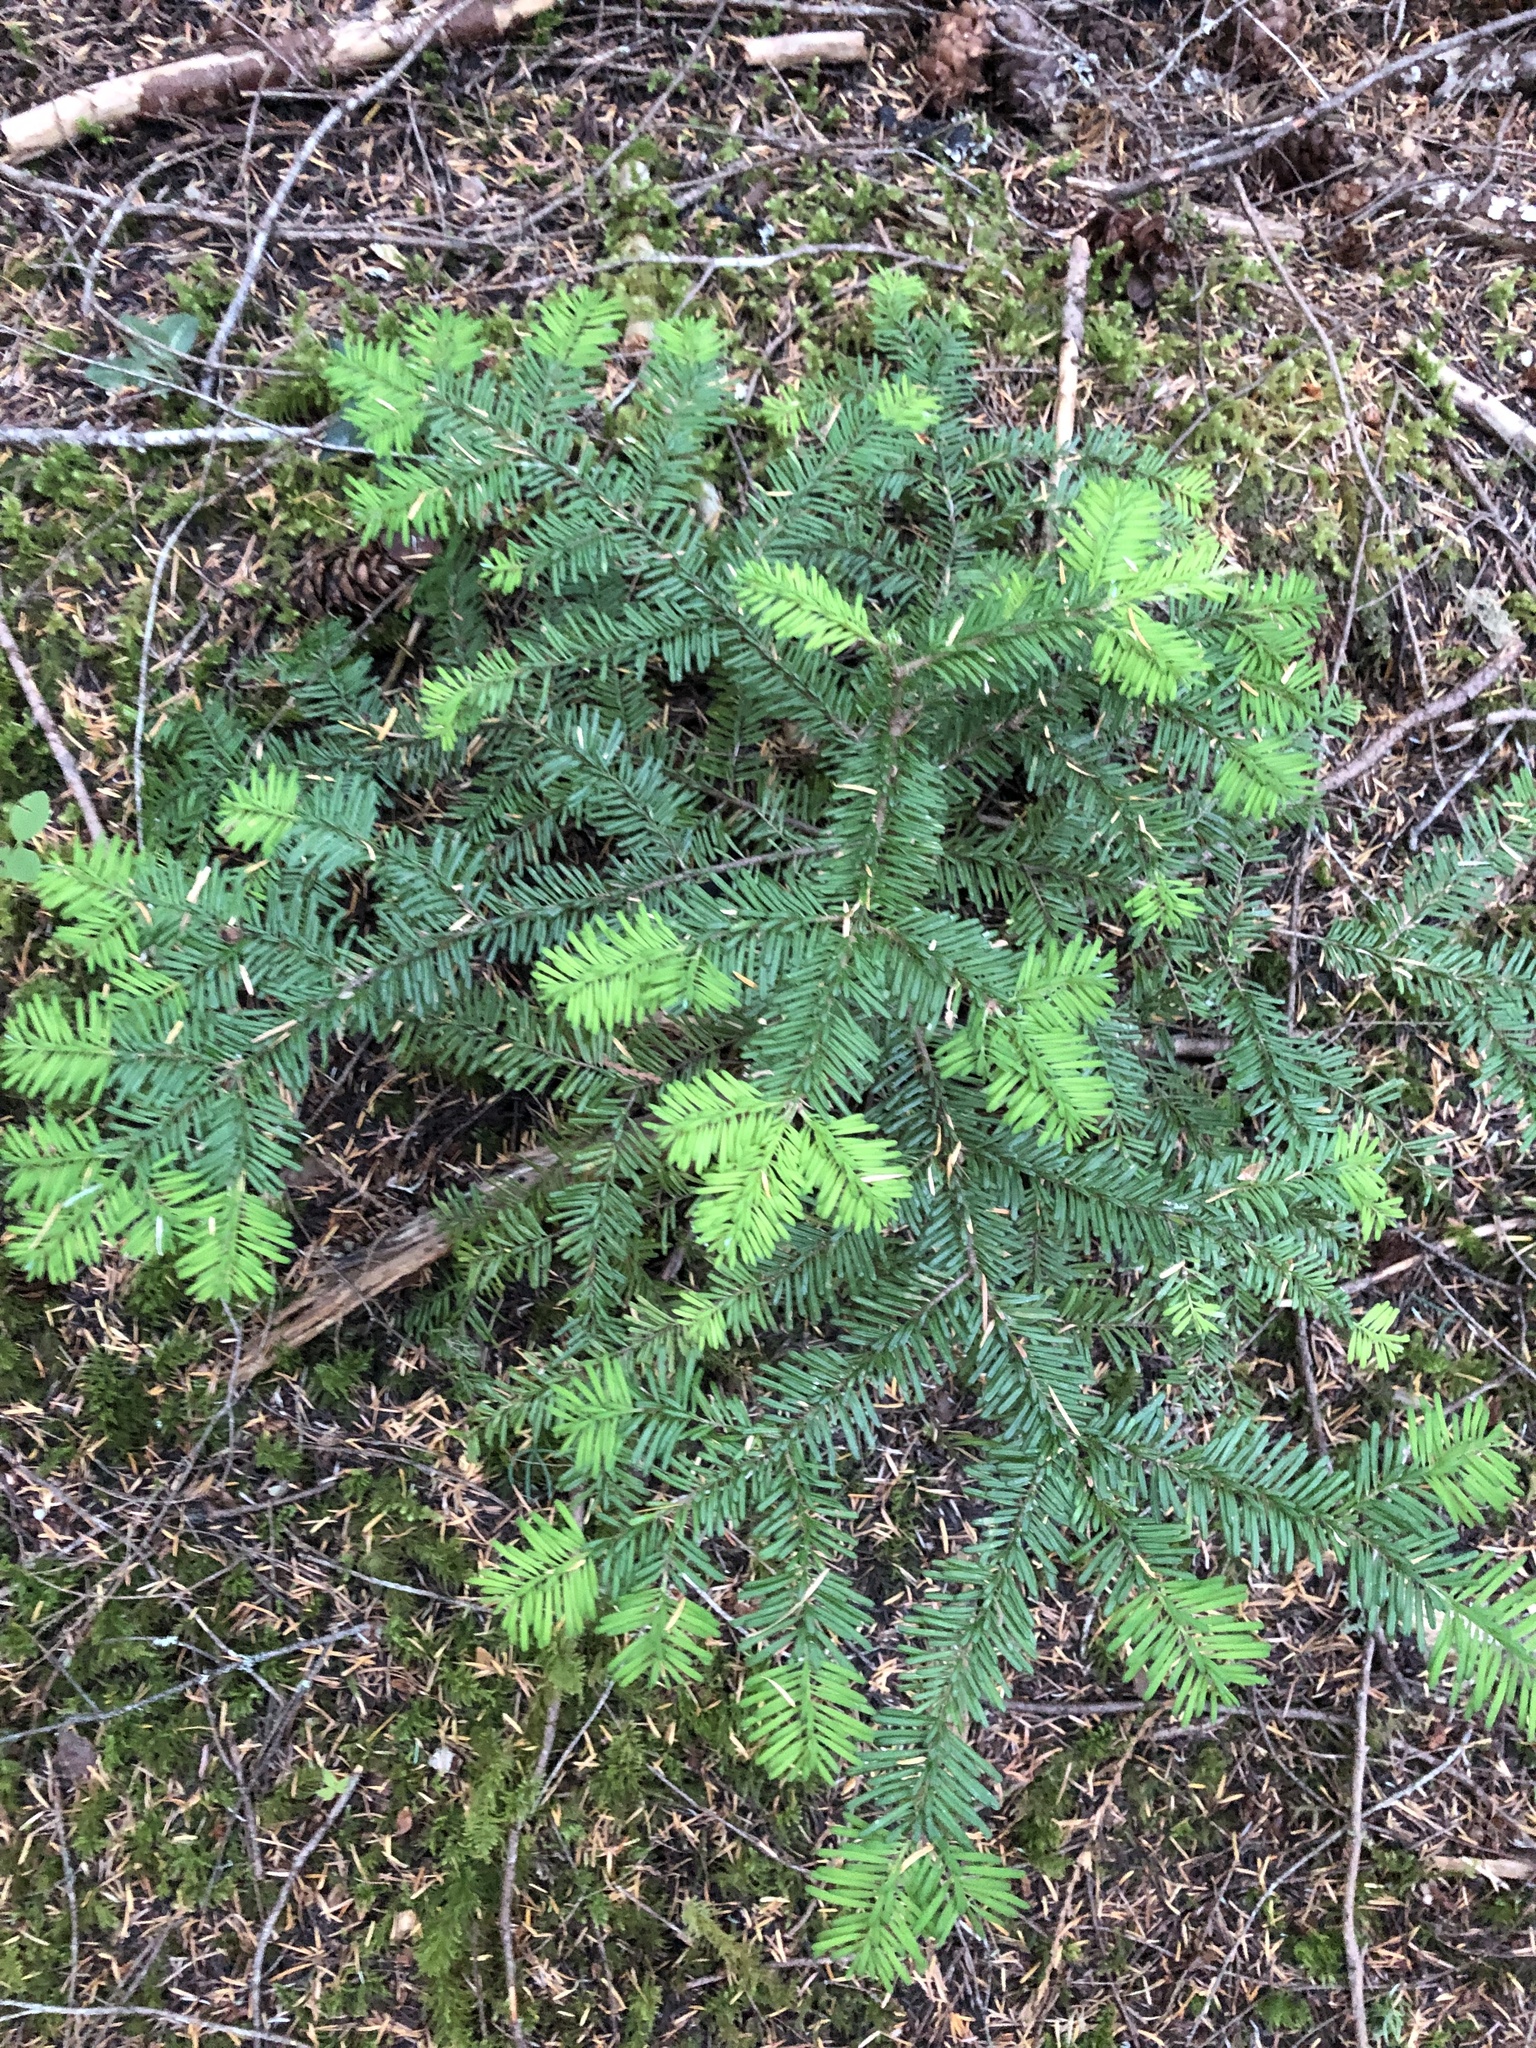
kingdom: Plantae
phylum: Tracheophyta
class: Pinopsida
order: Pinales
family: Pinaceae
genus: Abies
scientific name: Abies amabilis
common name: Pacific silver fir
